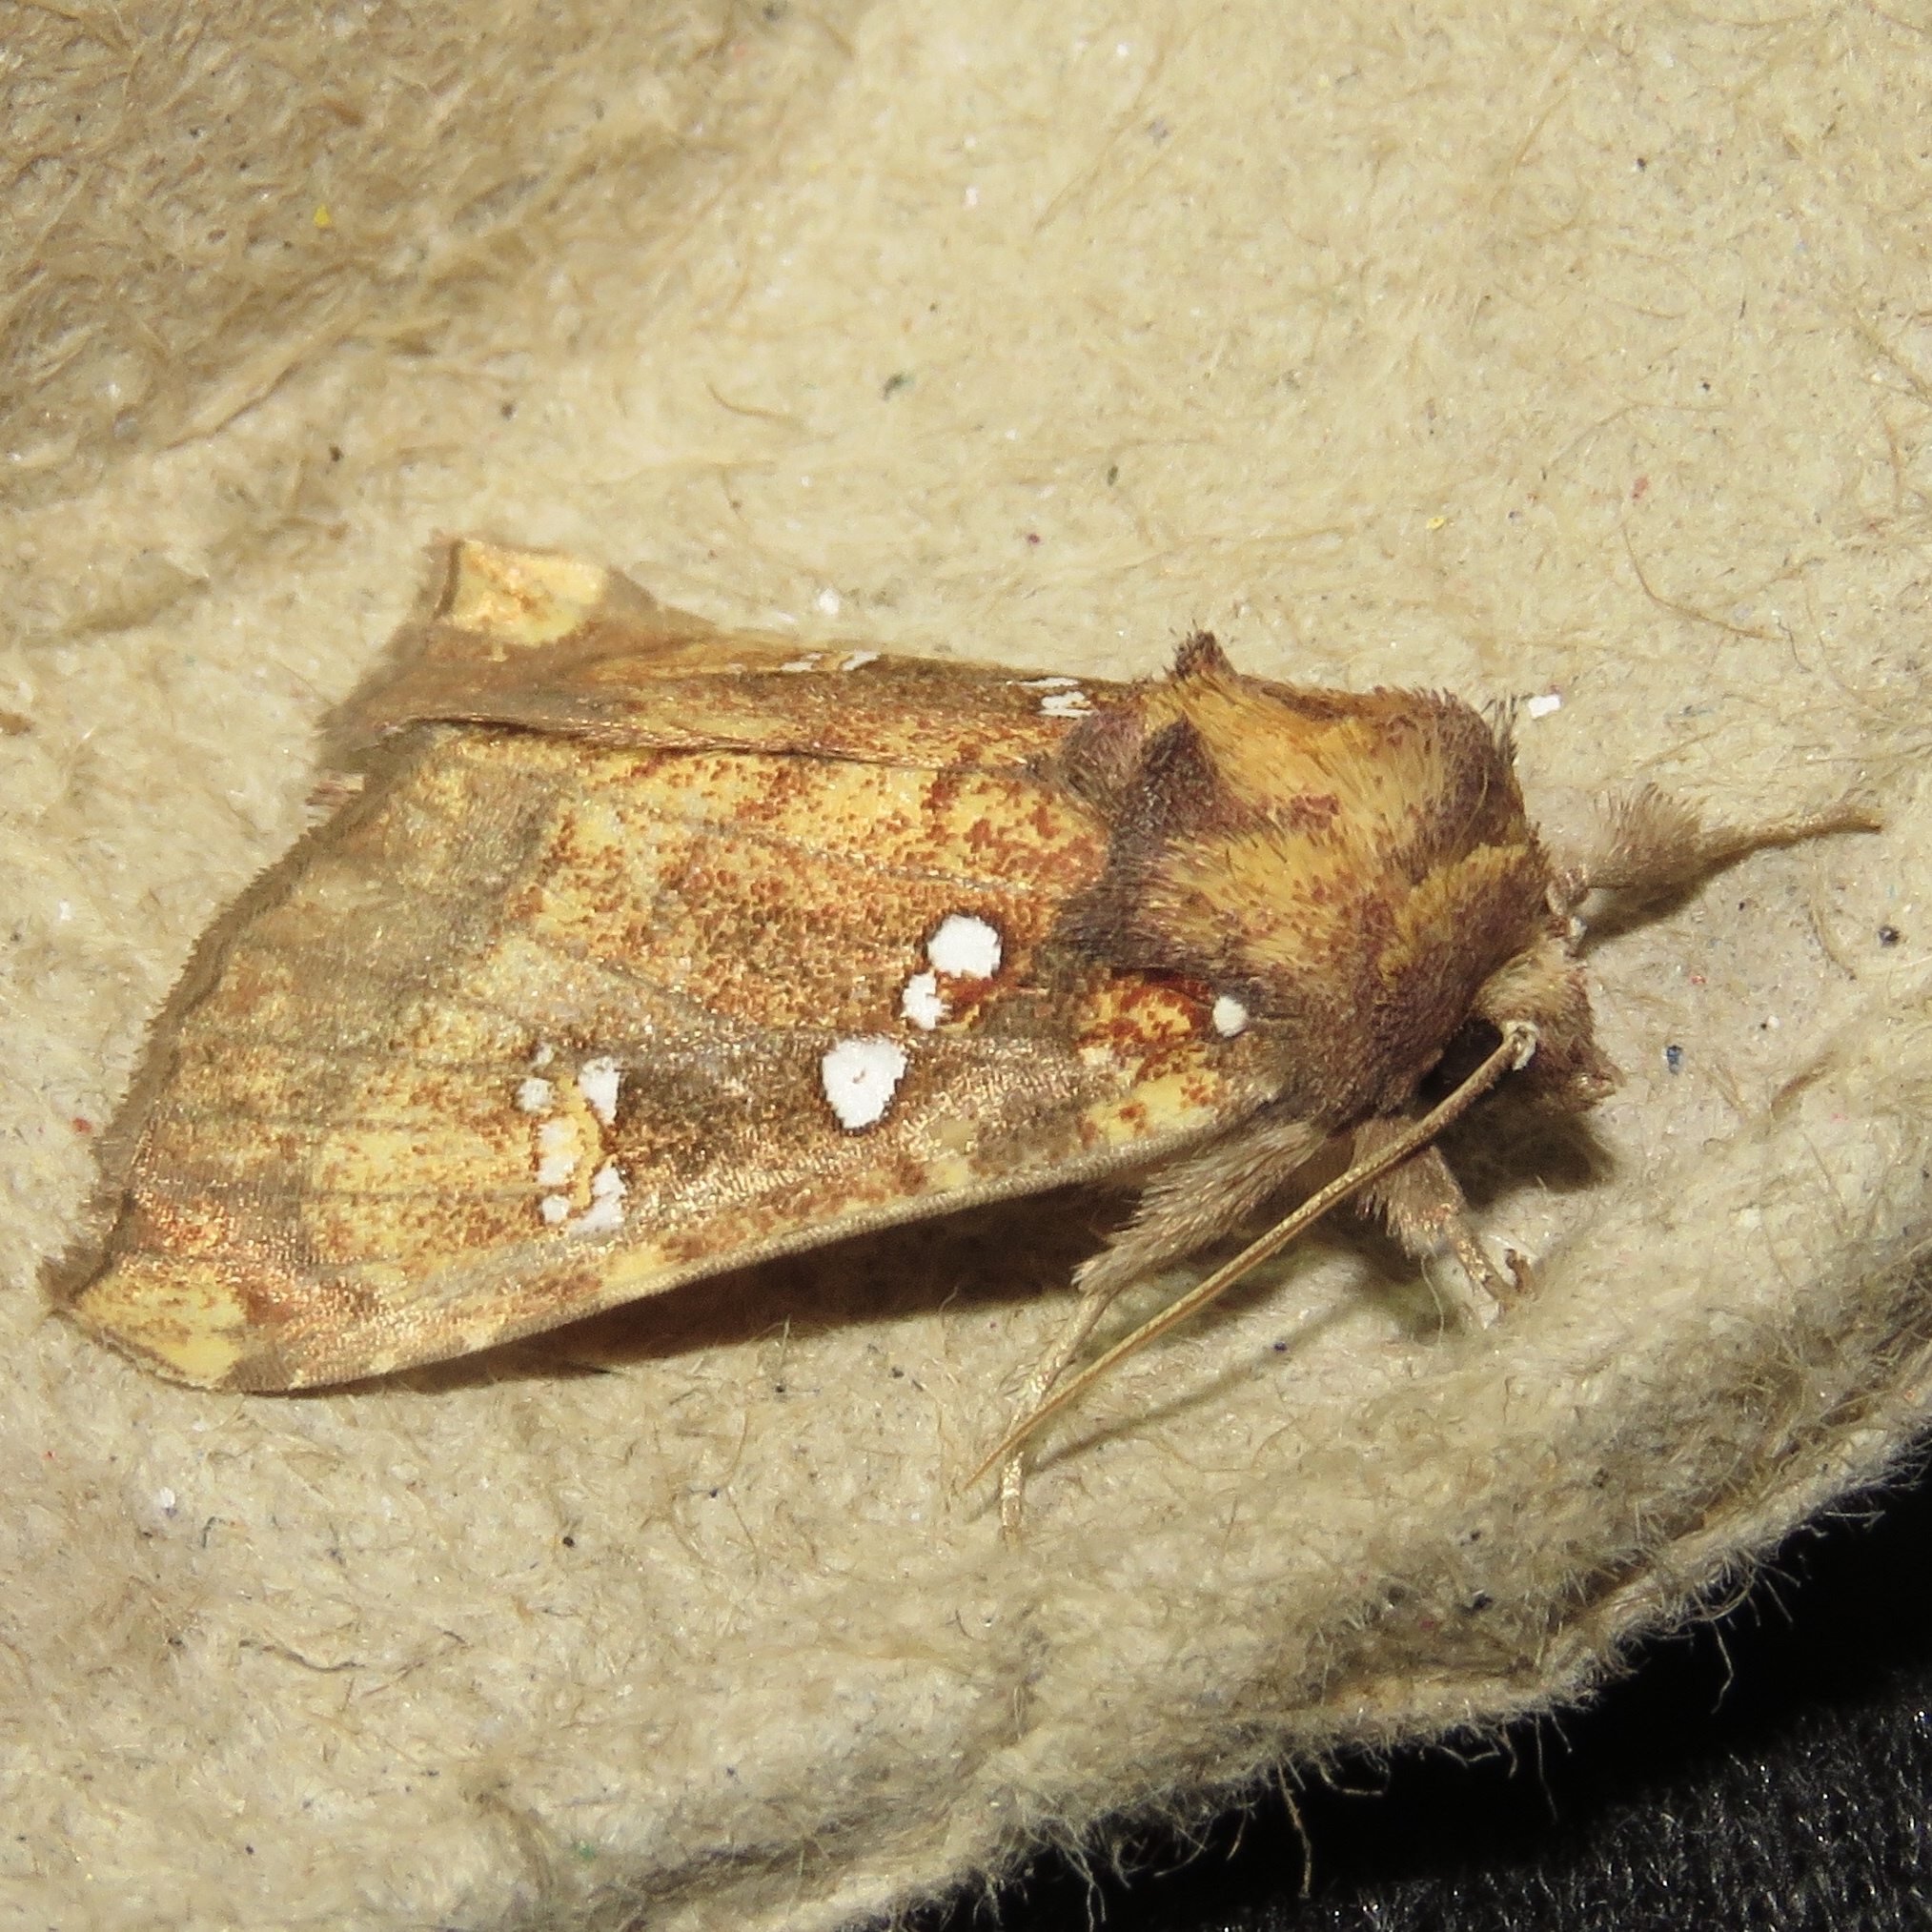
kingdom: Animalia
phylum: Arthropoda
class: Insecta
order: Lepidoptera
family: Noctuidae
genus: Papaipema
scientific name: Papaipema arctivorens
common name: Northern burdock borer moth
